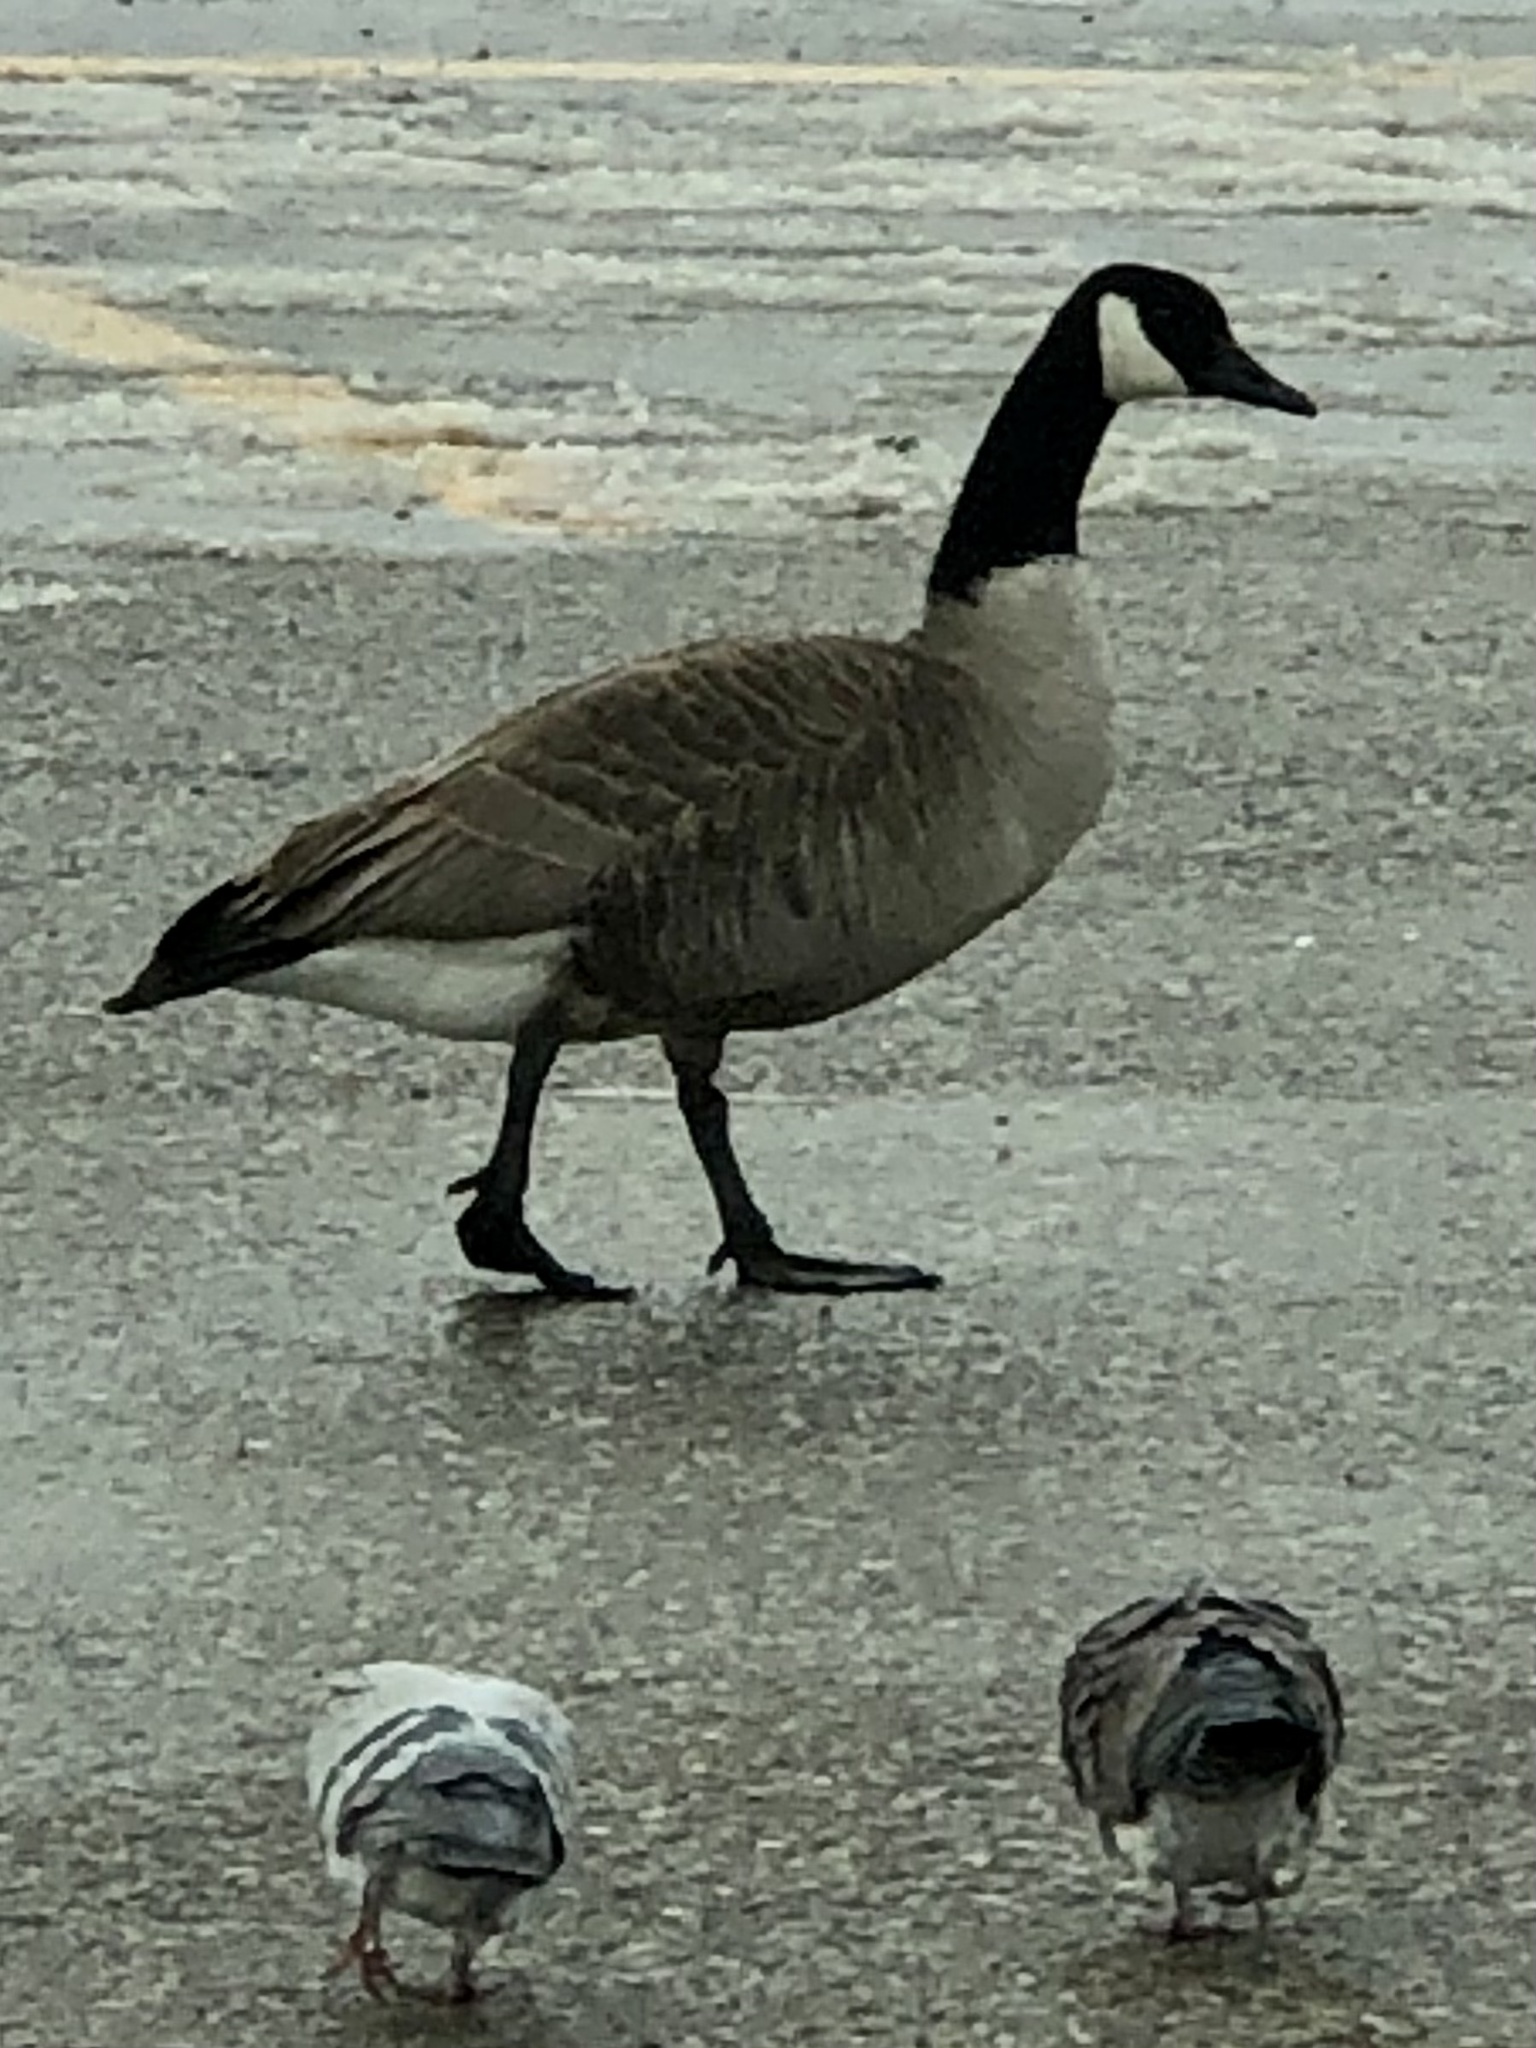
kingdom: Animalia
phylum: Chordata
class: Aves
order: Anseriformes
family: Anatidae
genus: Branta
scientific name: Branta canadensis
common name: Canada goose
